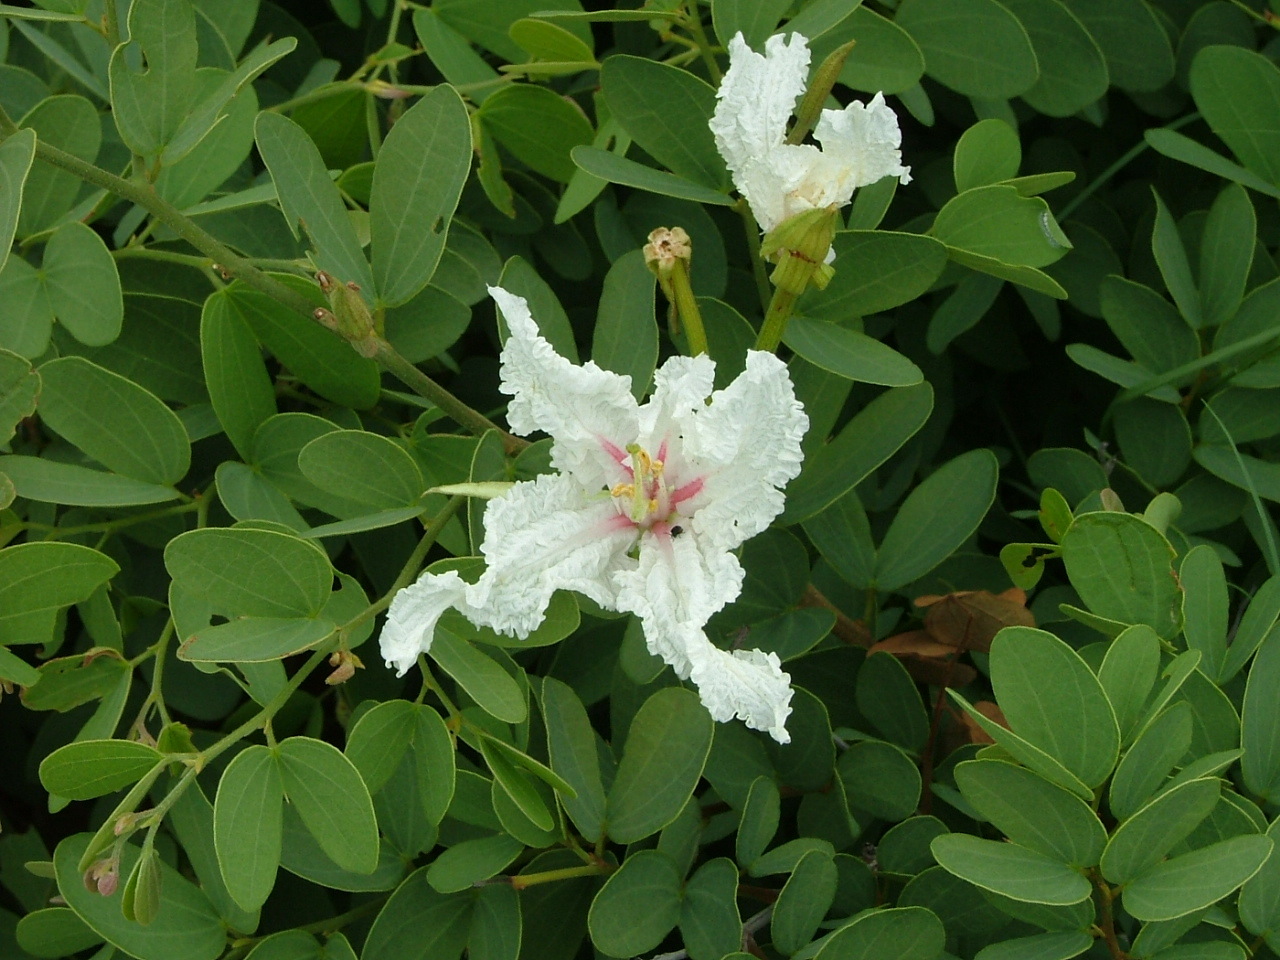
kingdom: Plantae
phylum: Tracheophyta
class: Magnoliopsida
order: Fabales
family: Fabaceae
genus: Bauhinia
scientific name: Bauhinia macrantha
